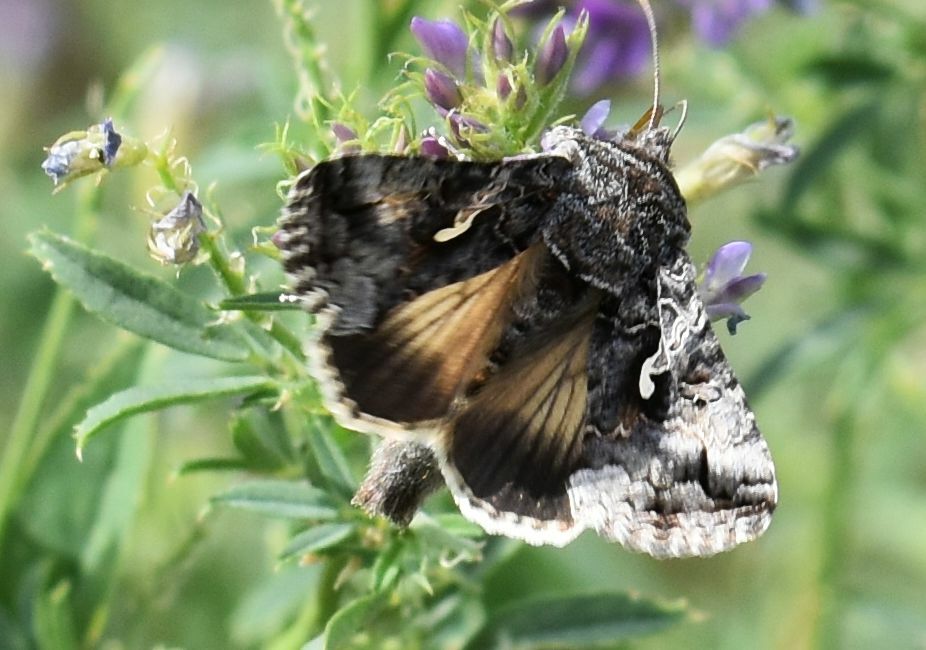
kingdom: Animalia
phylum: Arthropoda
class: Insecta
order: Lepidoptera
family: Noctuidae
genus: Autographa
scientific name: Autographa californica
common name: Alfalfa looper
